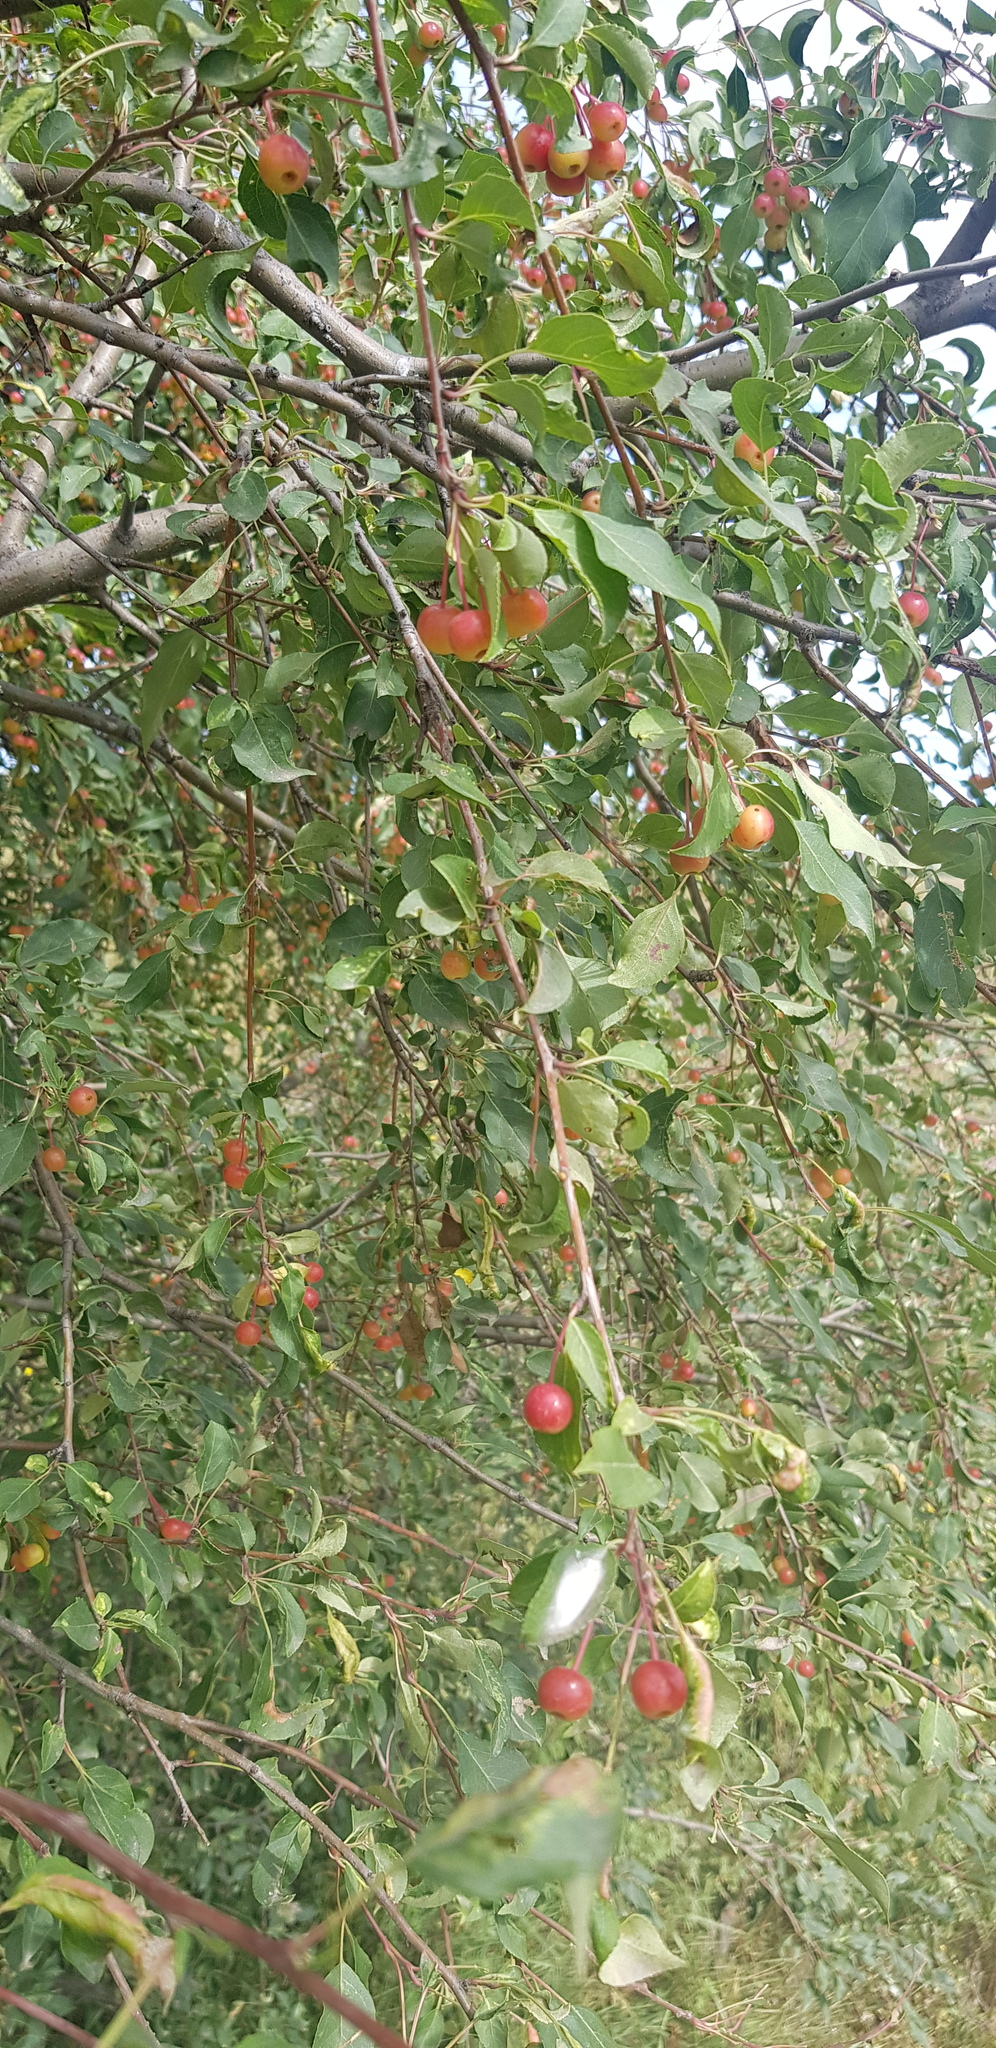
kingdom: Plantae
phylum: Tracheophyta
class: Magnoliopsida
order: Rosales
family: Rosaceae
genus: Malus
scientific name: Malus baccata
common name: Siberian crab
